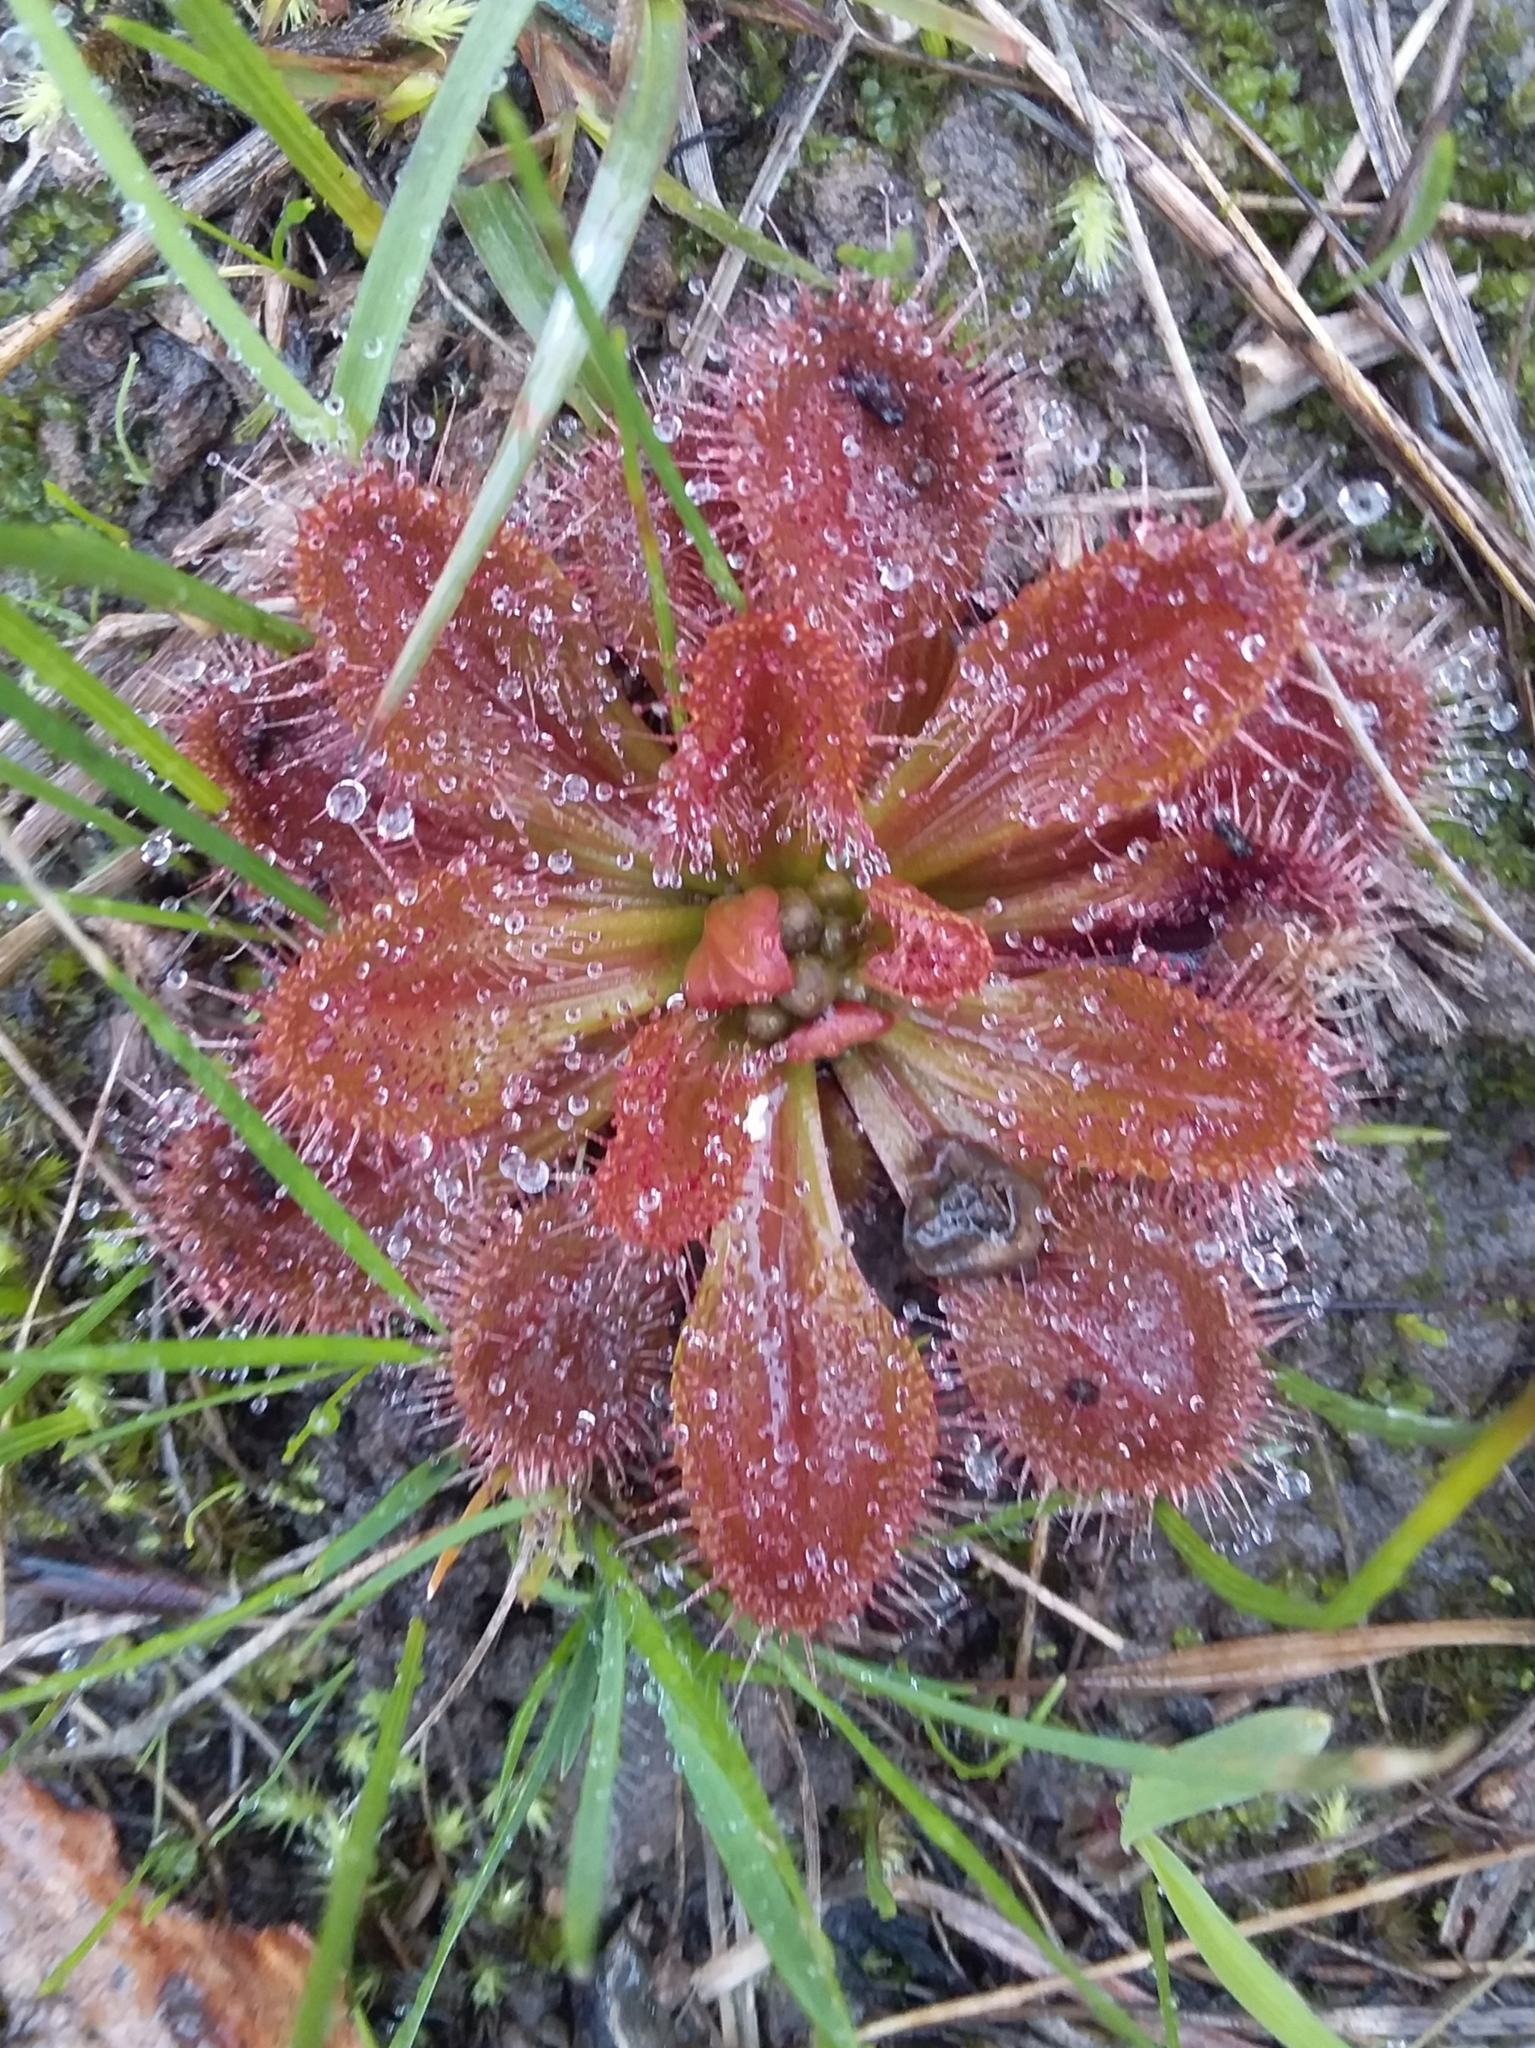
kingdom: Plantae
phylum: Tracheophyta
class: Magnoliopsida
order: Caryophyllales
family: Droseraceae
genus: Drosera
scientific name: Drosera whittakeri
